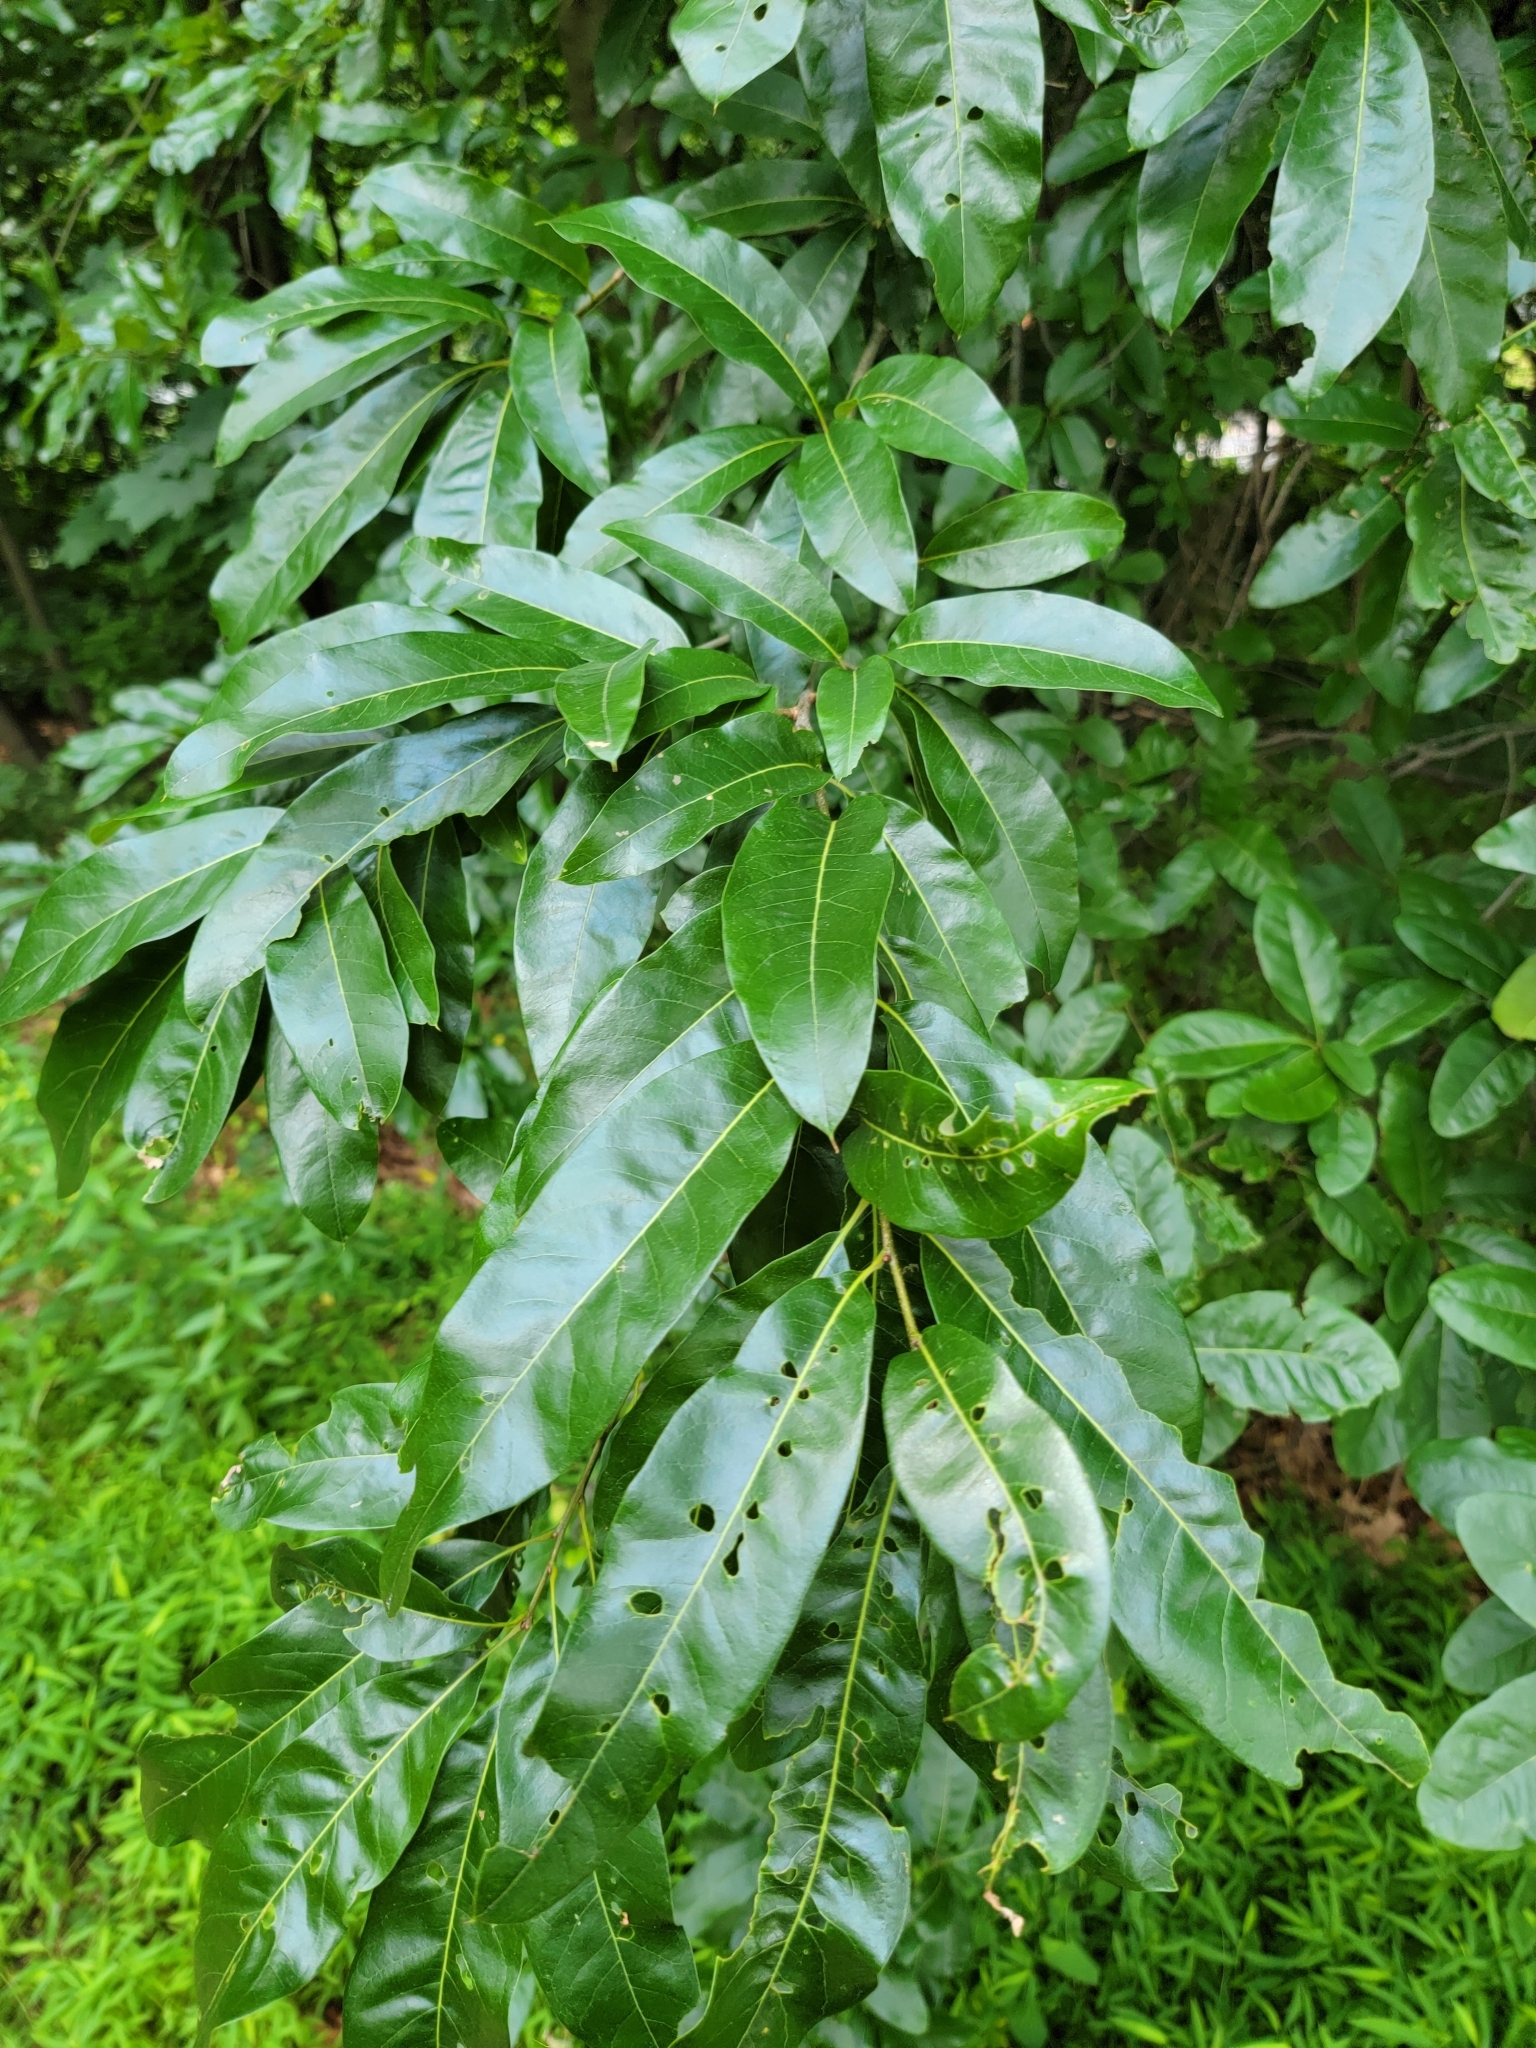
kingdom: Plantae
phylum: Tracheophyta
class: Magnoliopsida
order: Fagales
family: Fagaceae
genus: Quercus
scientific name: Quercus imbricaria
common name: Shingle oak
